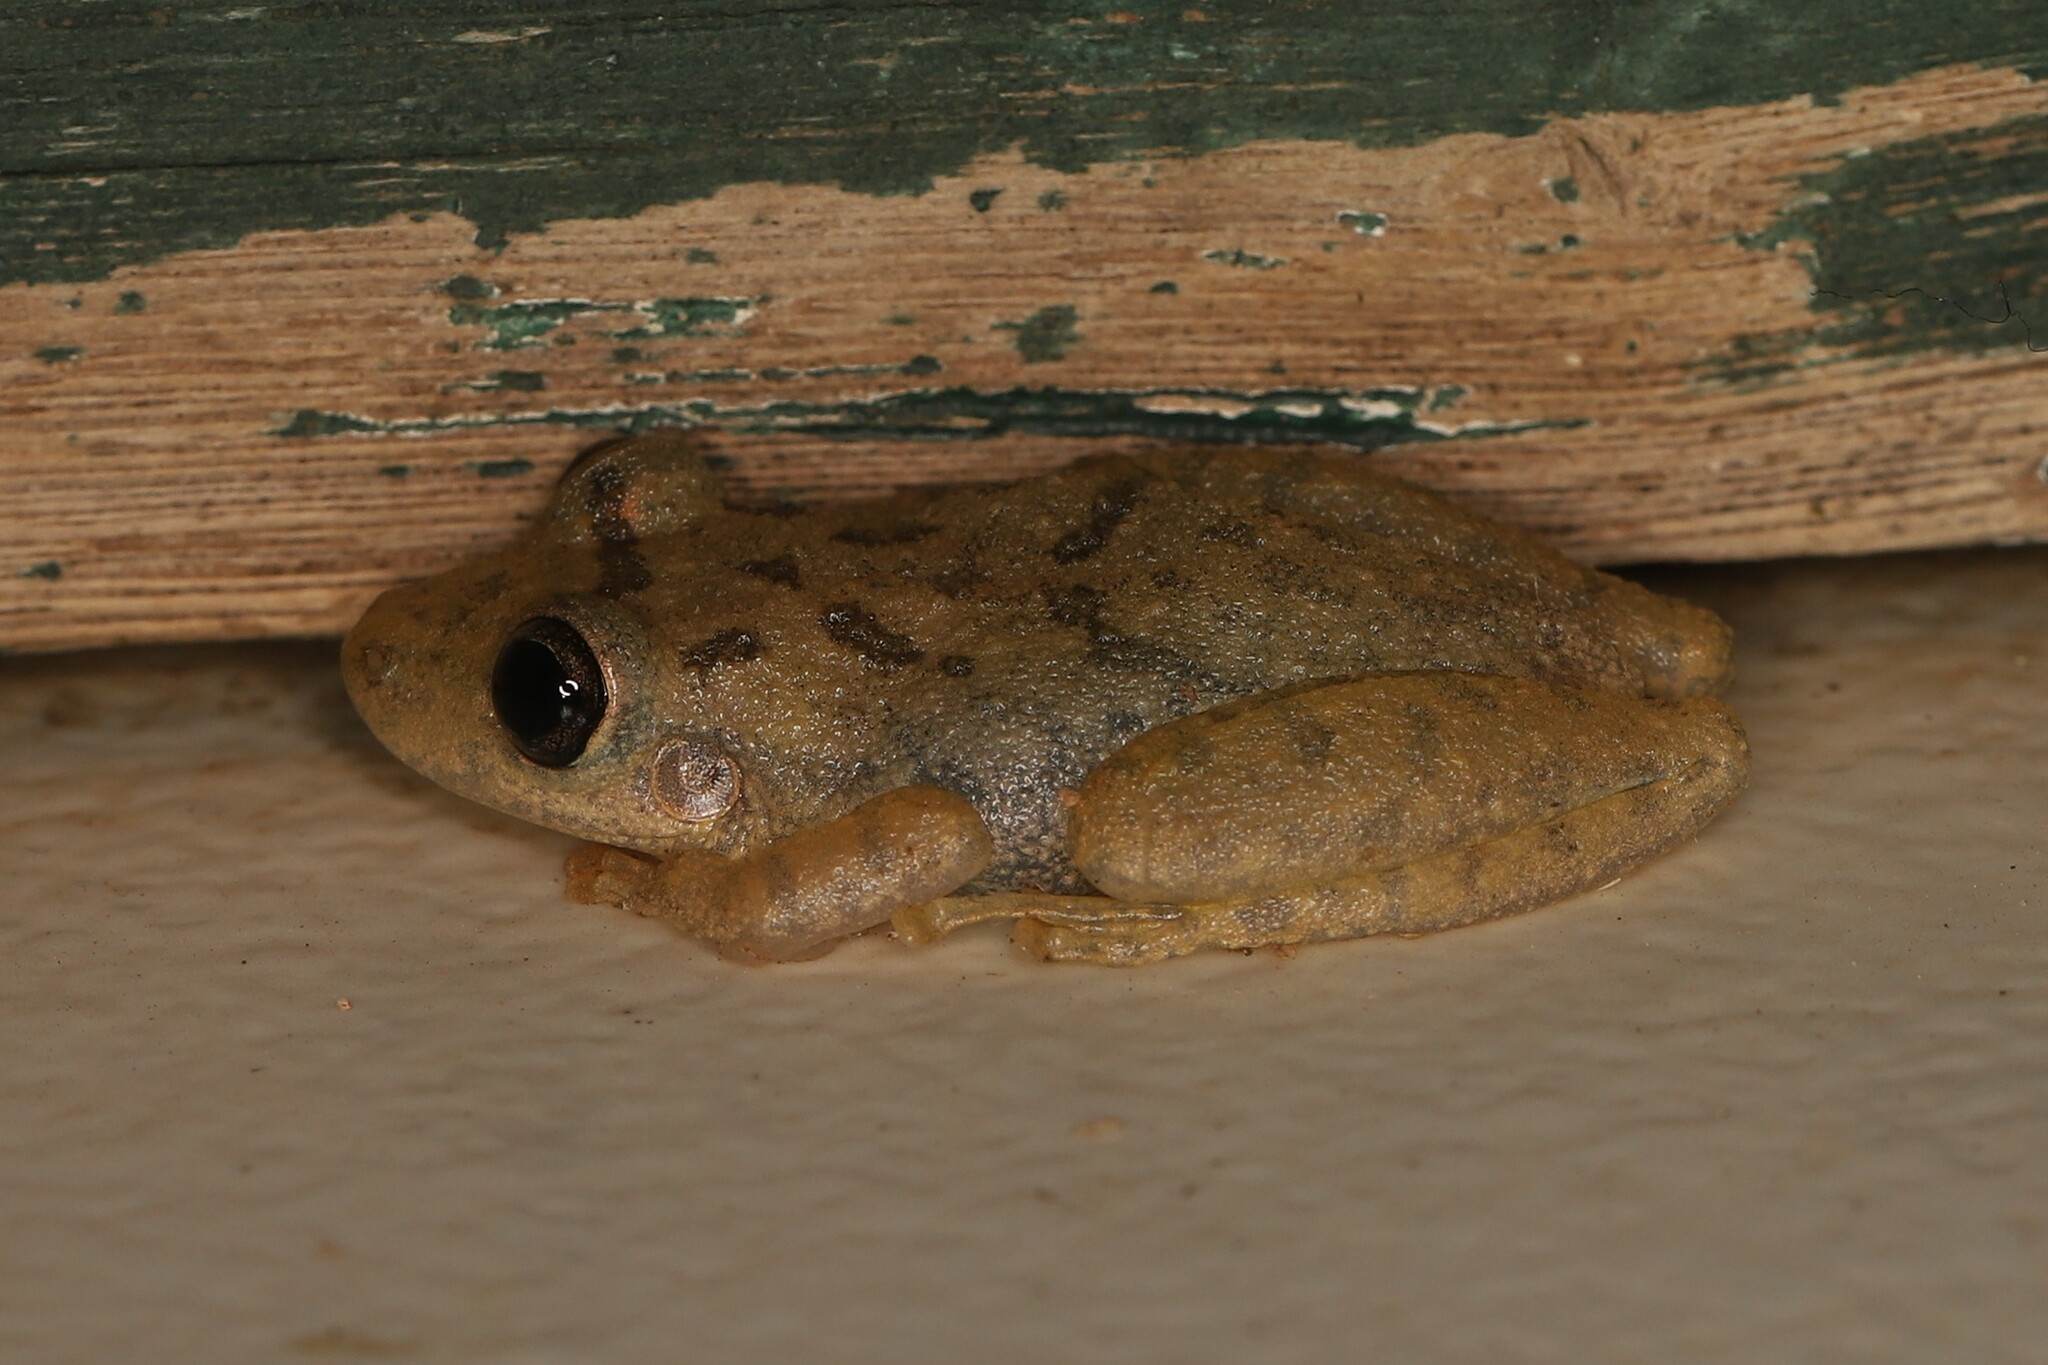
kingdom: Animalia
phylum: Chordata
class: Amphibia
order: Anura
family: Hylidae
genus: Scinax
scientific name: Scinax fuscovarius
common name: Fuscous-blotched treefrog
